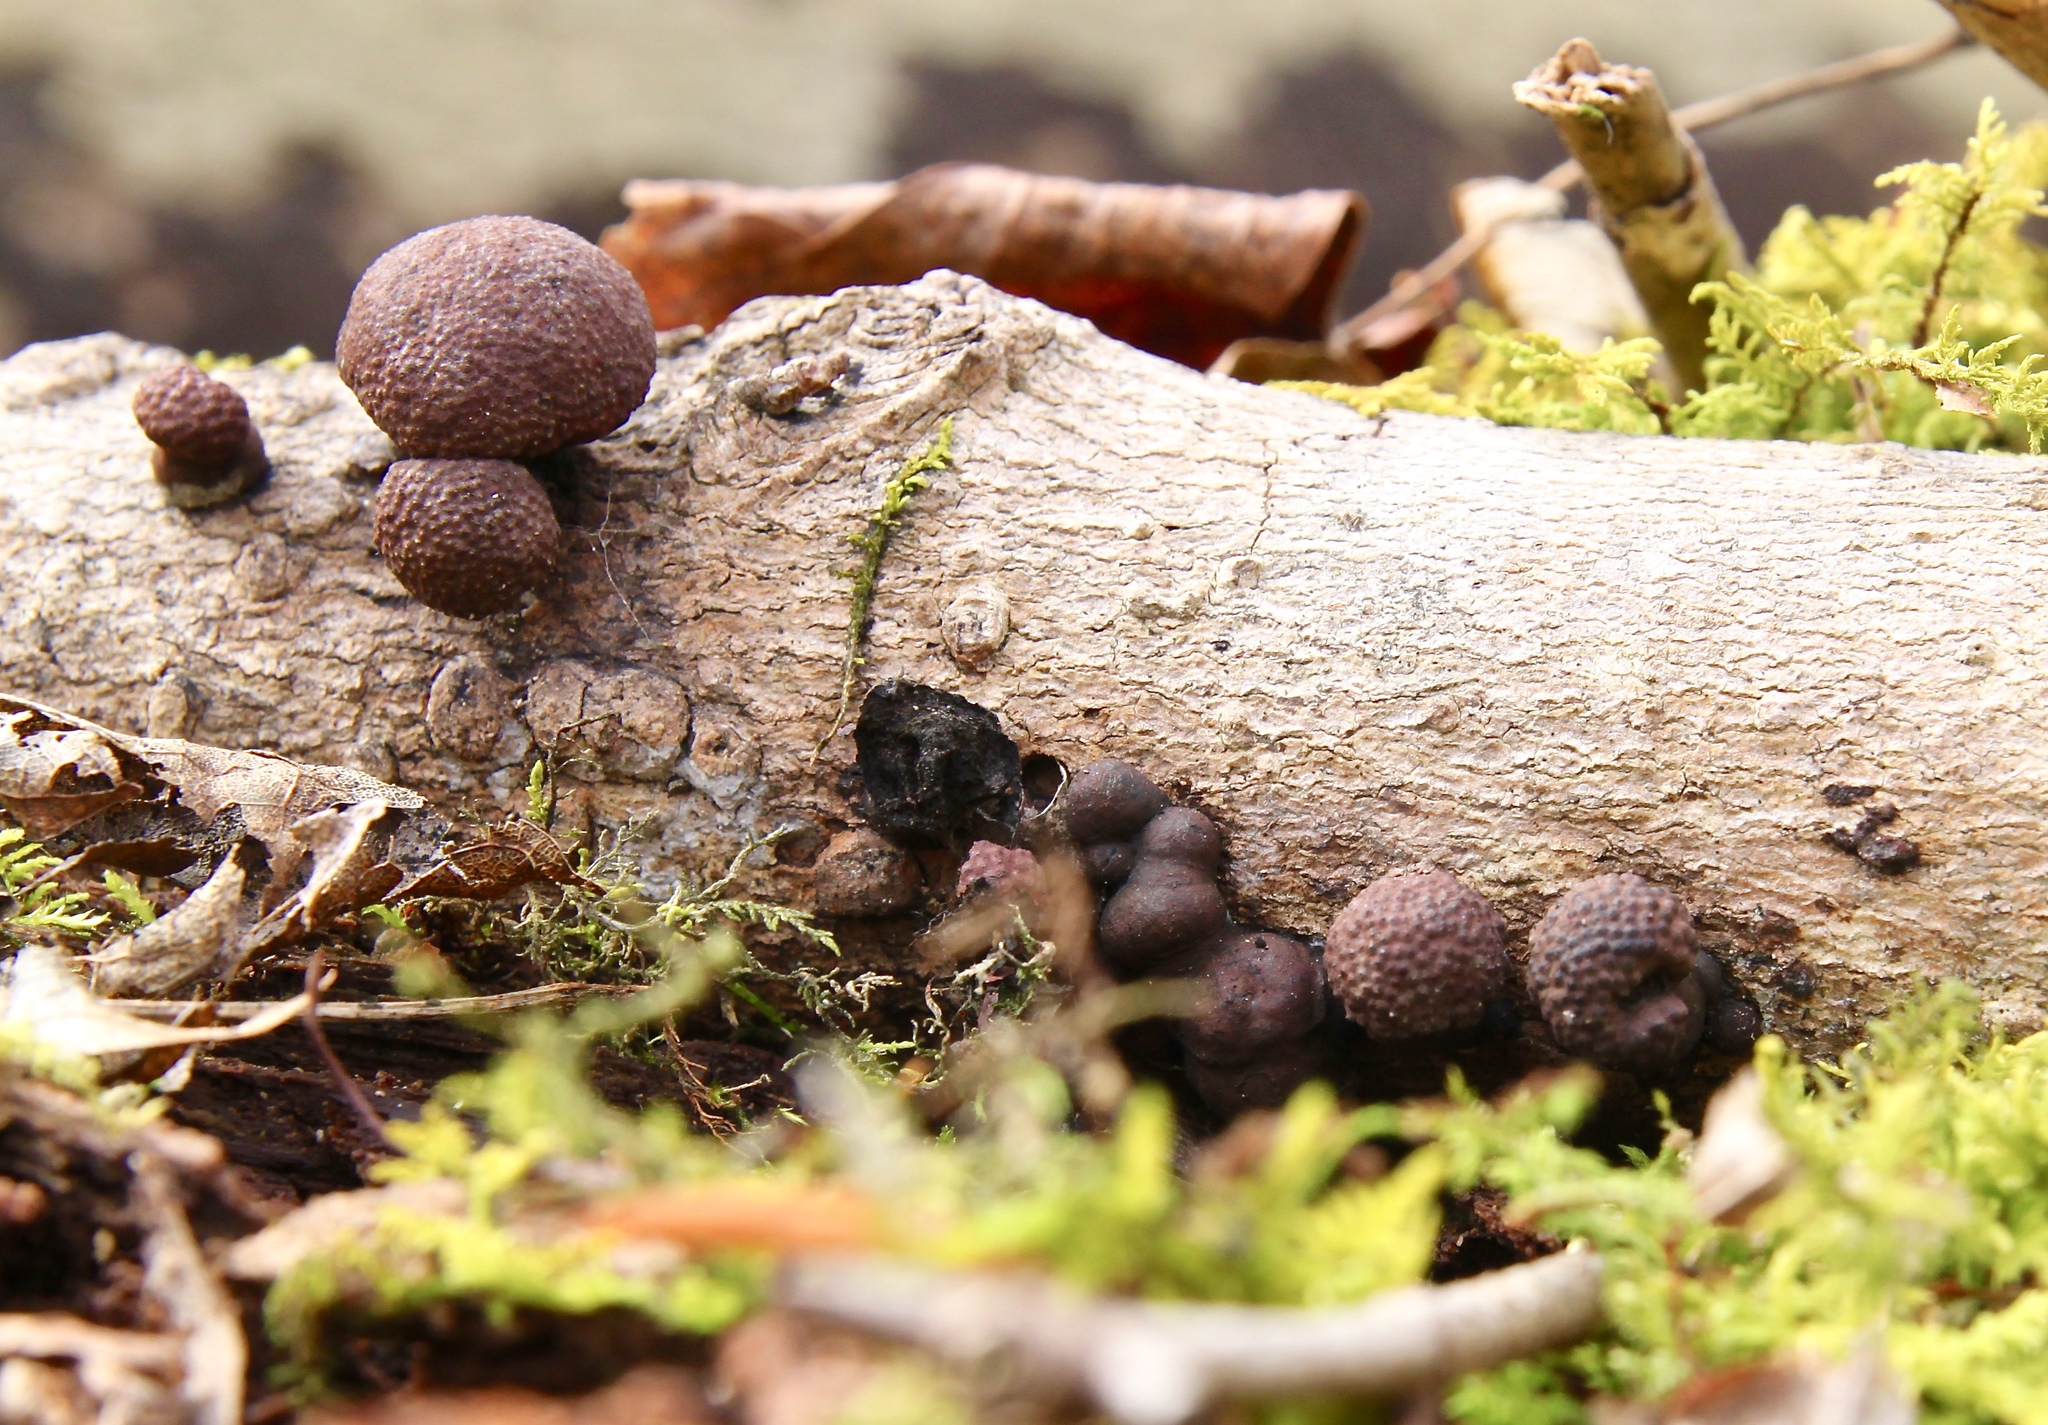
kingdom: Fungi
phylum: Ascomycota
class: Sordariomycetes
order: Xylariales
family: Hypoxylaceae
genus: Hypoxylon
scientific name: Hypoxylon fragiforme
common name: Beech woodwart
